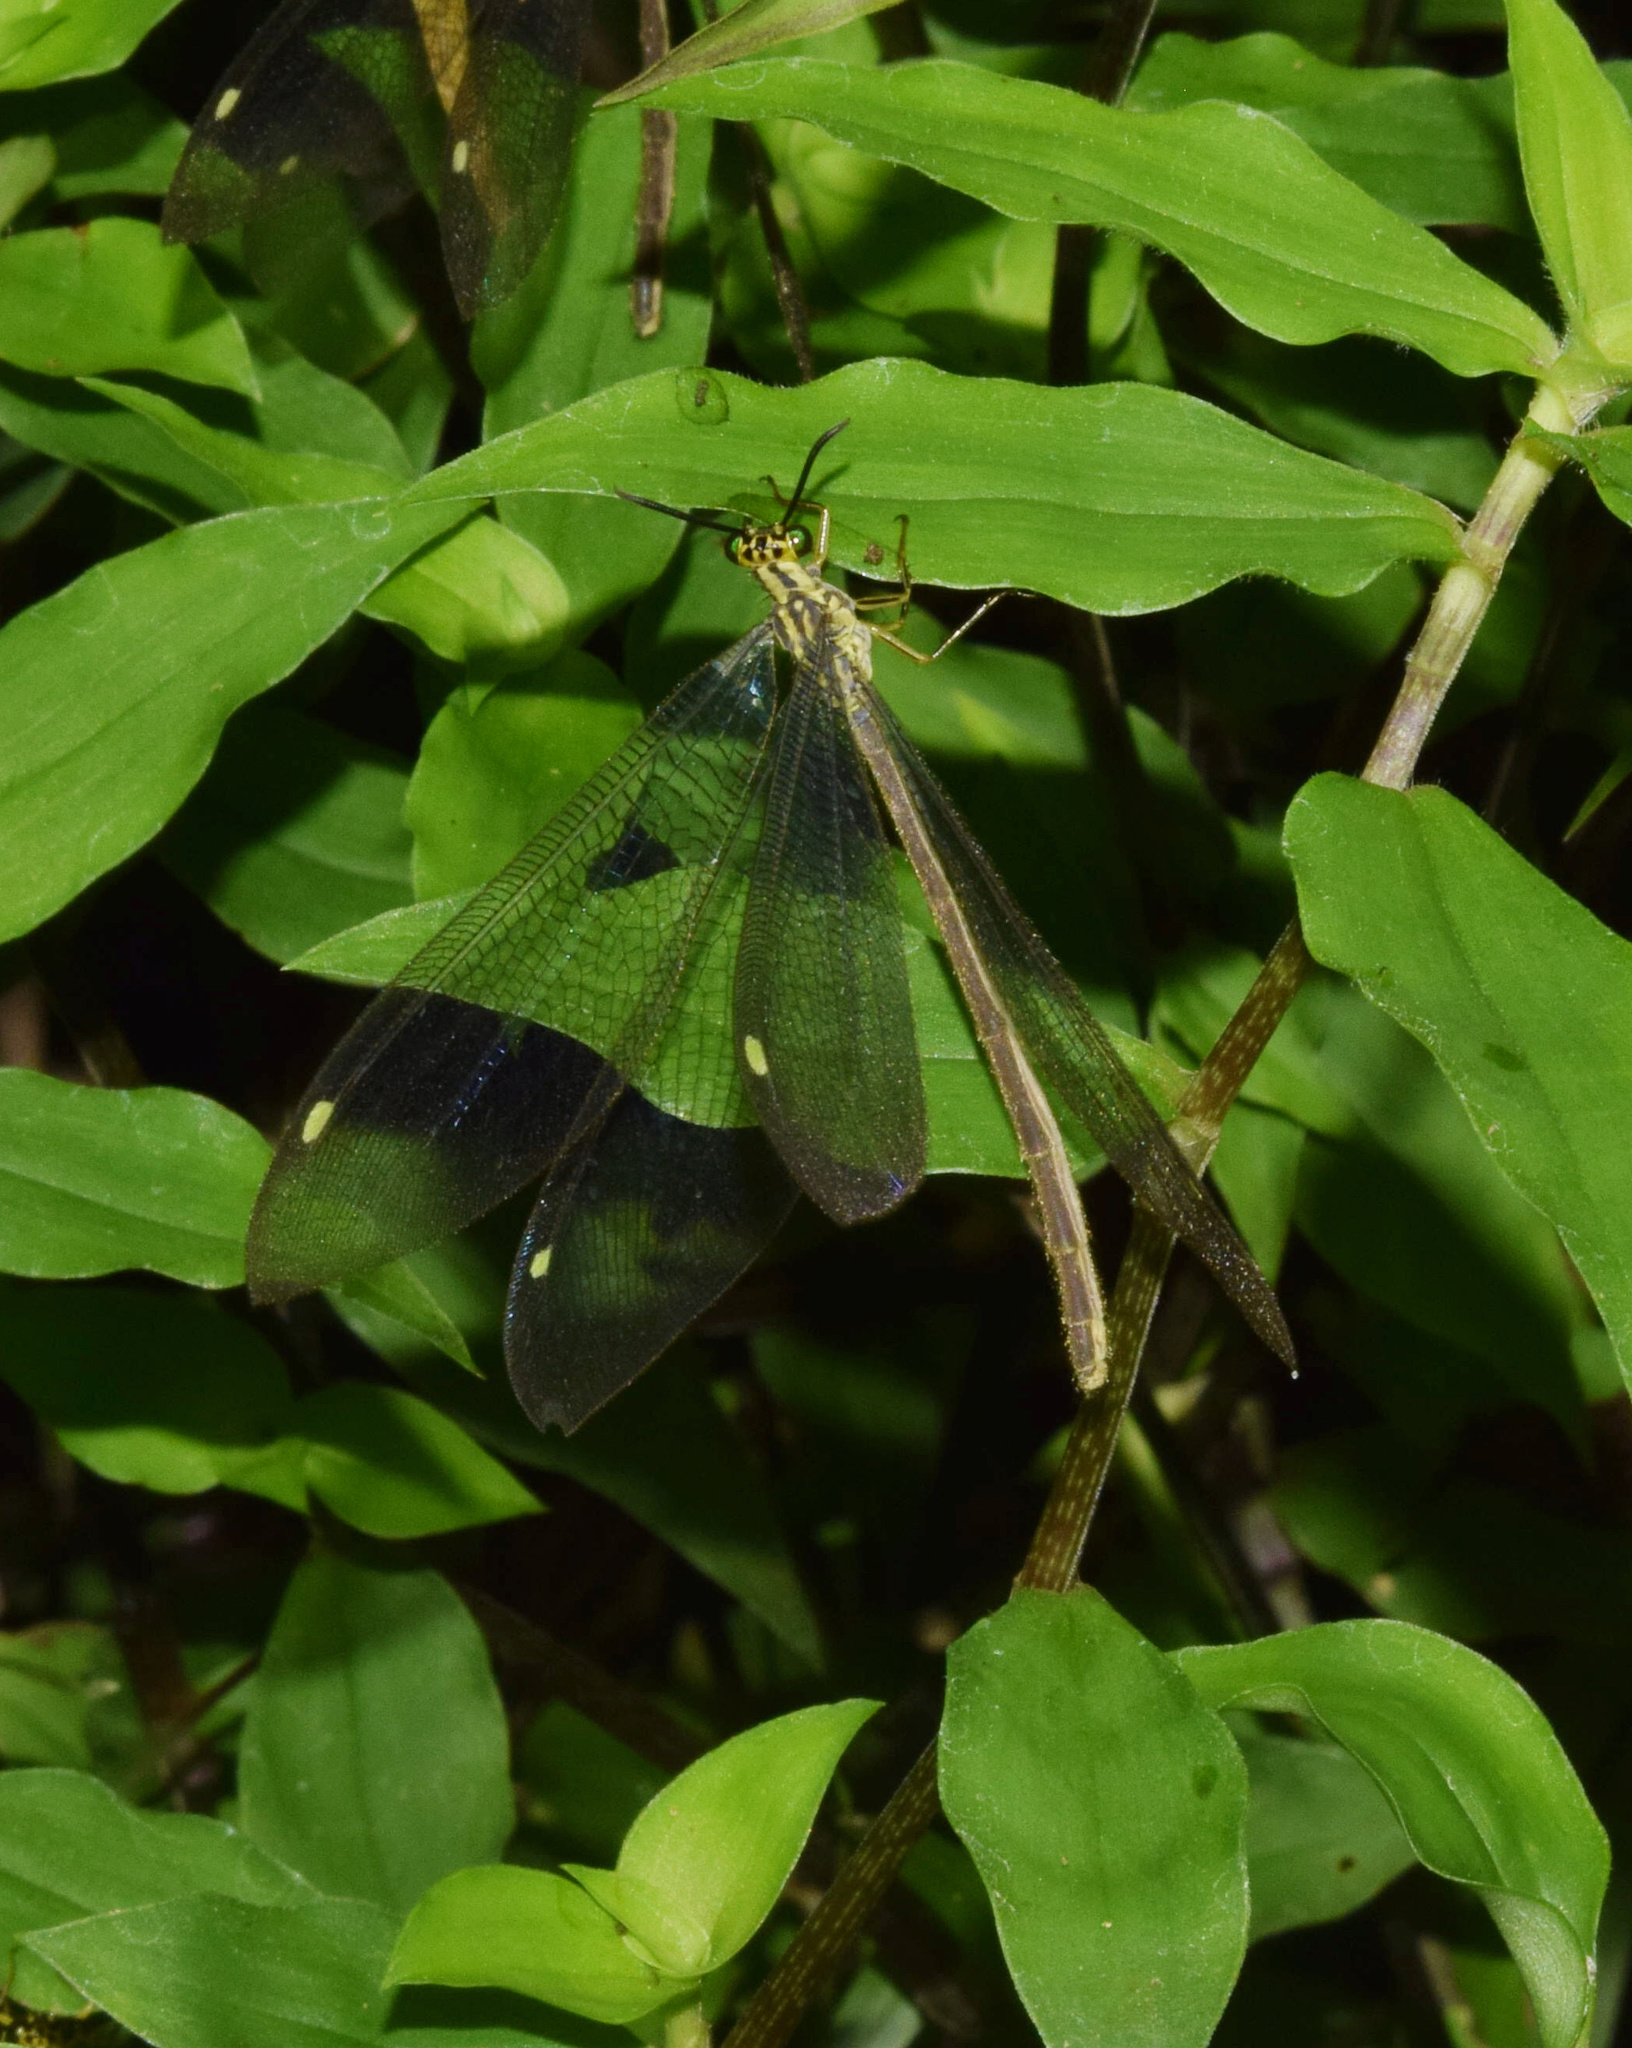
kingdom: Animalia
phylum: Arthropoda
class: Insecta
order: Neuroptera
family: Myrmeleontidae
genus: Hagenomyia
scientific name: Hagenomyia tristis
